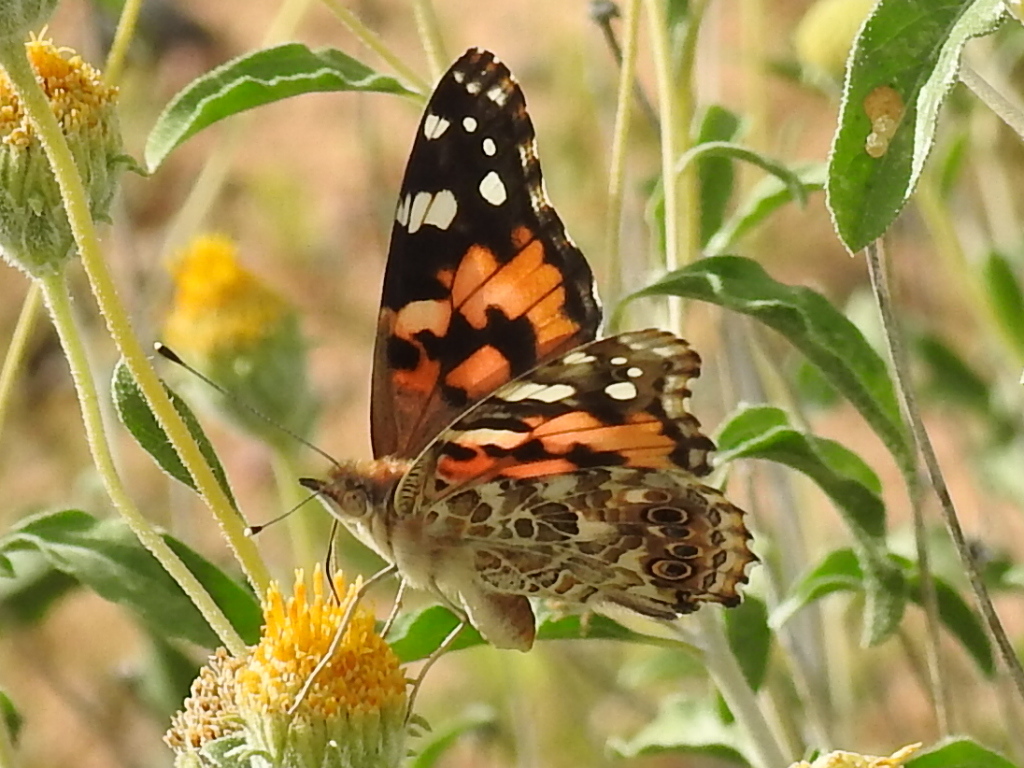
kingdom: Animalia
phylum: Arthropoda
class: Insecta
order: Lepidoptera
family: Nymphalidae
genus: Vanessa
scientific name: Vanessa cardui
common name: Painted lady
